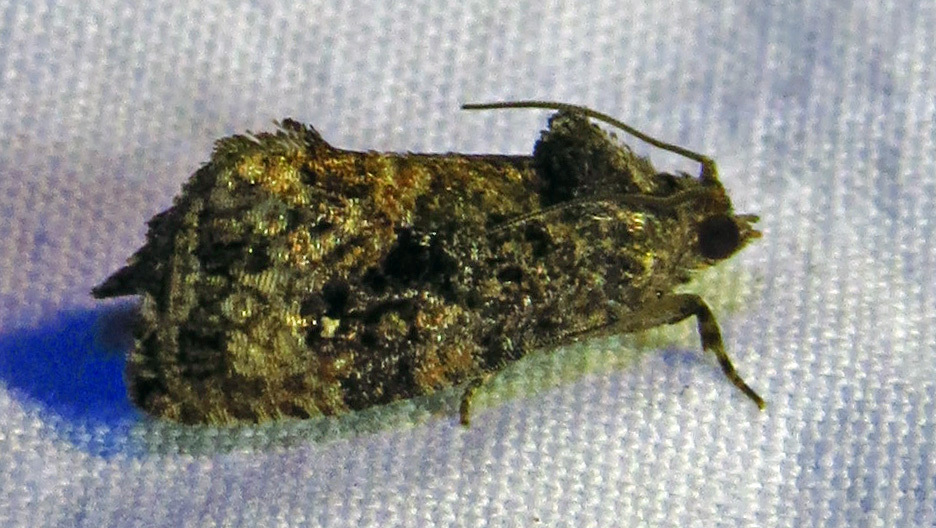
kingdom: Animalia
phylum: Arthropoda
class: Insecta
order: Lepidoptera
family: Tortricidae
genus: Gymnandrosoma
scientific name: Gymnandrosoma punctidiscanum
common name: Dotted ecdytolopha moth
